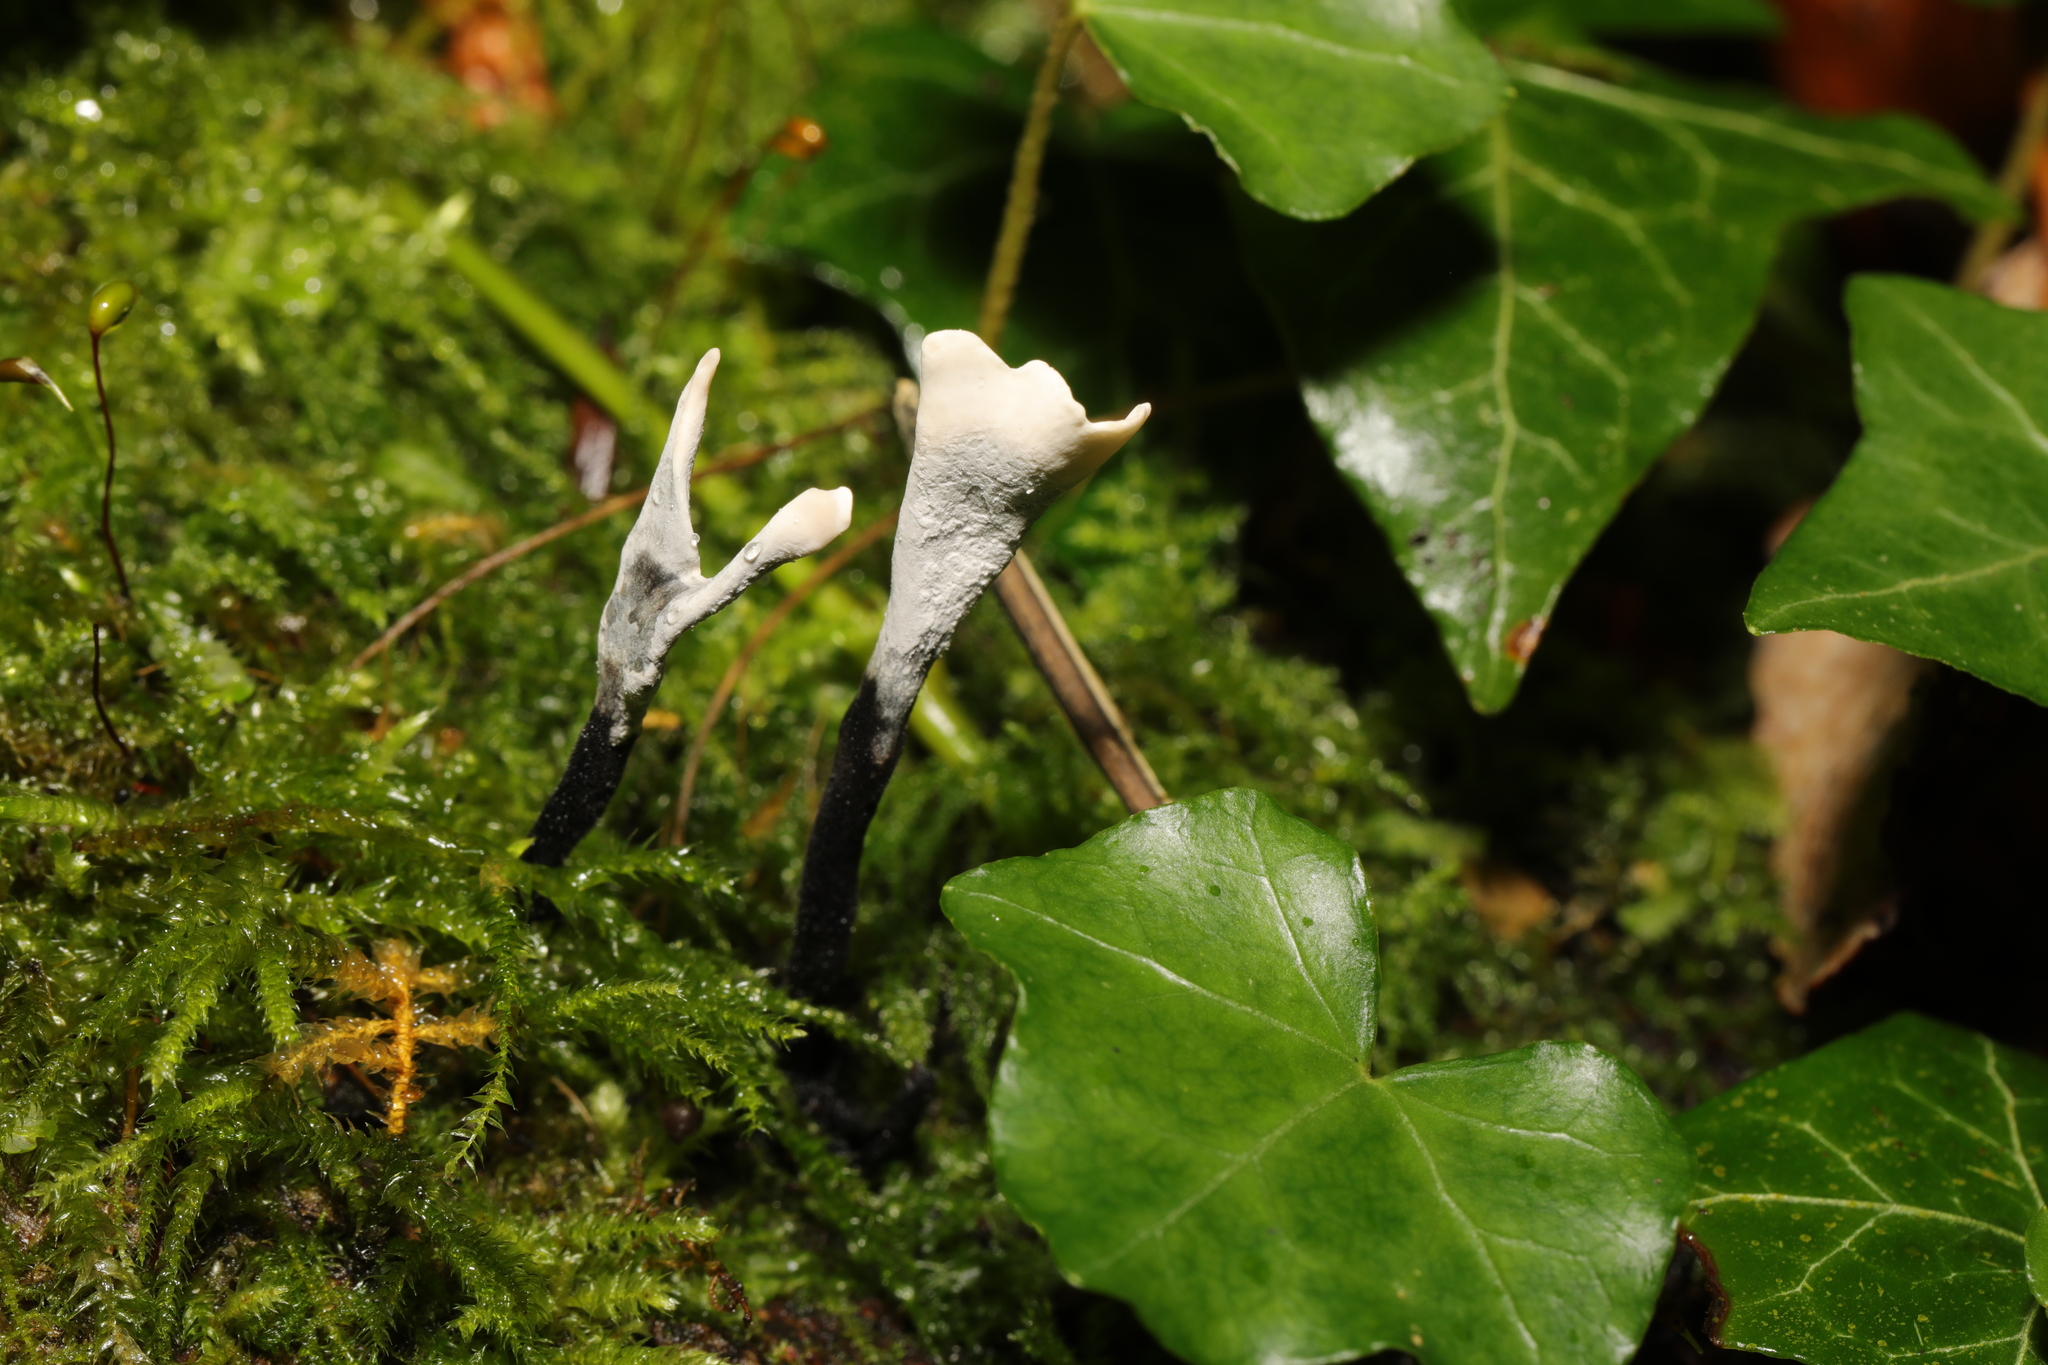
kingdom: Fungi
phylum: Ascomycota
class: Sordariomycetes
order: Xylariales
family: Xylariaceae
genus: Xylaria
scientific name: Xylaria hypoxylon
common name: Candle-snuff fungus
